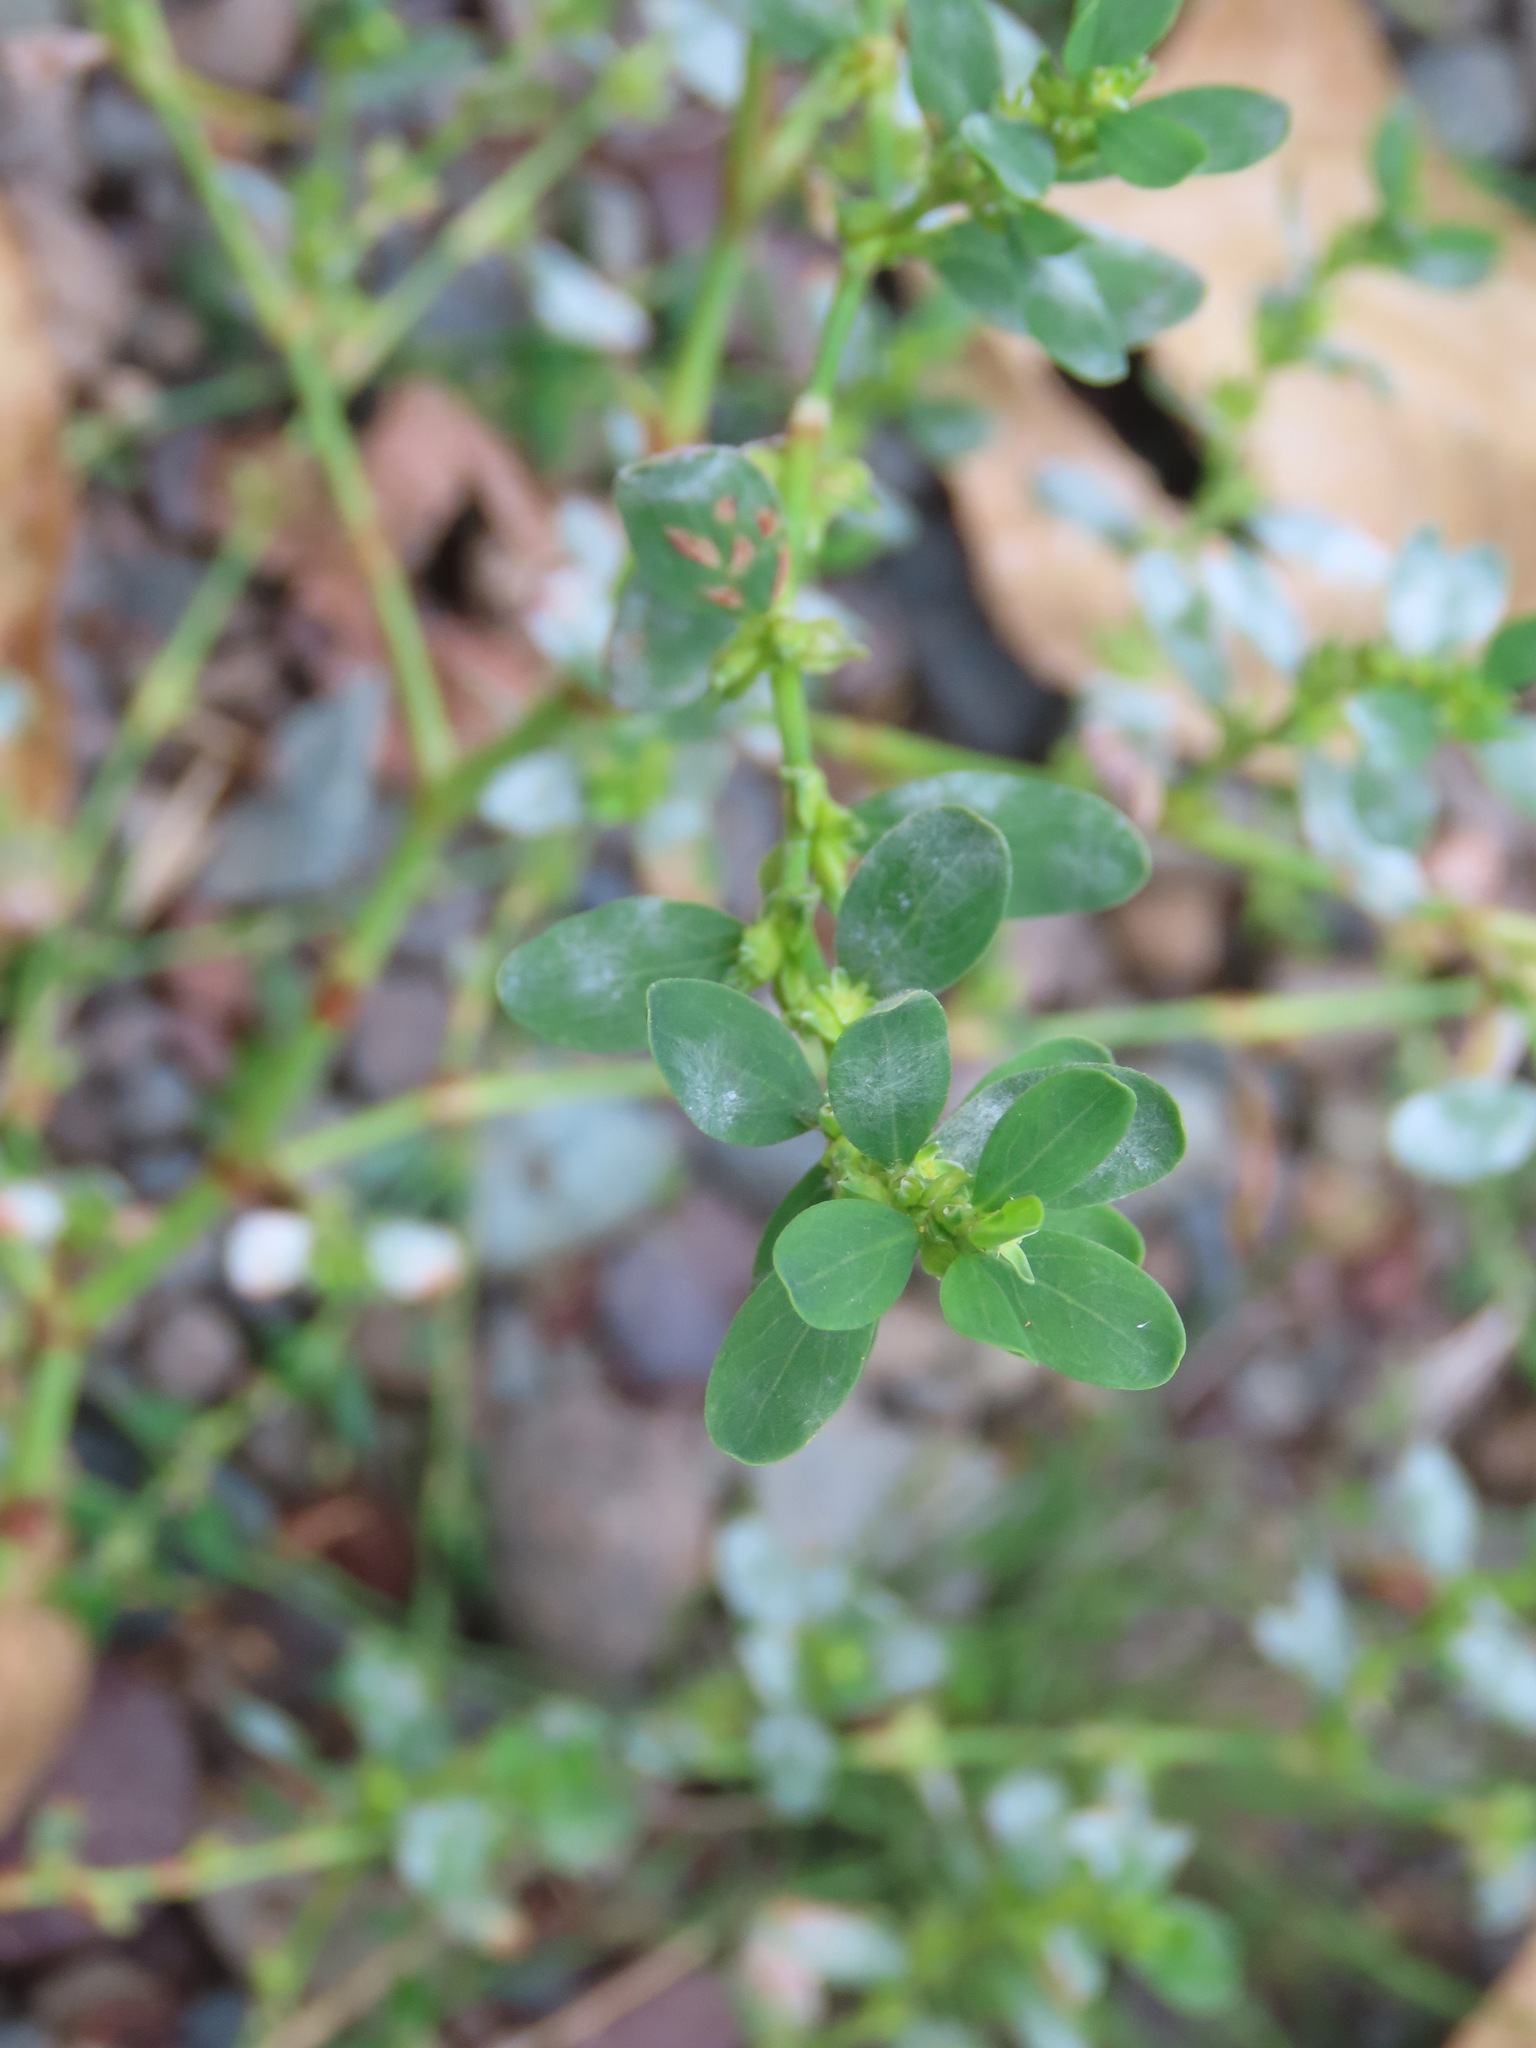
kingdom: Plantae
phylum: Tracheophyta
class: Magnoliopsida
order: Fabales
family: Fabaceae
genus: Melilotus
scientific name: Melilotus albus
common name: White melilot
